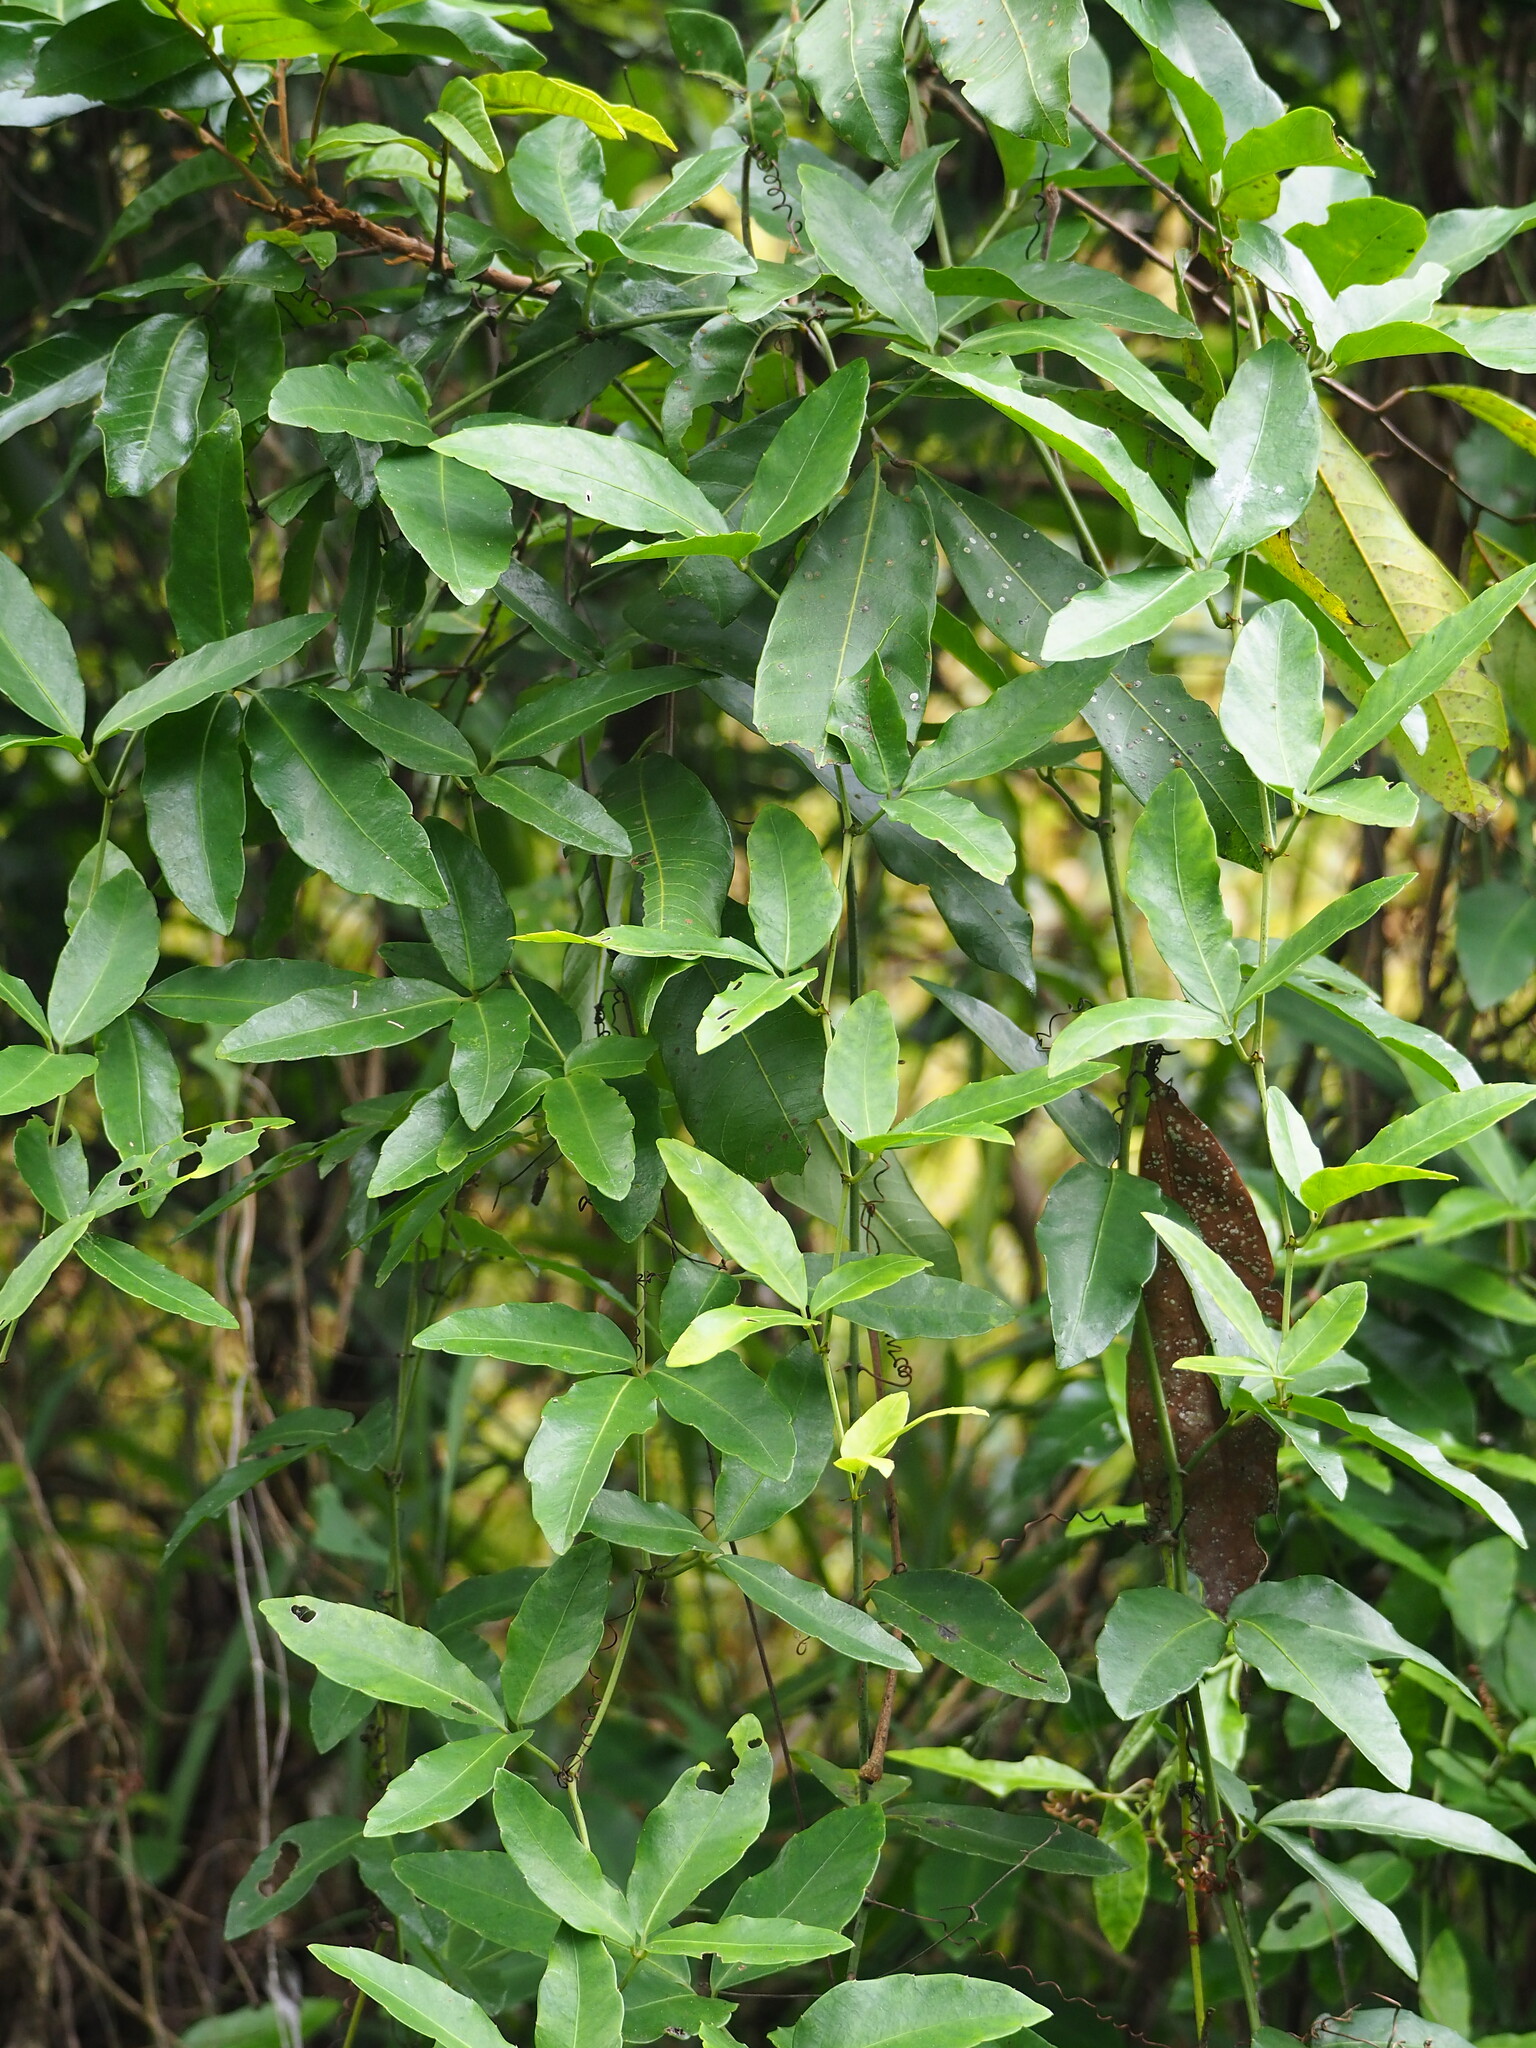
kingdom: Plantae
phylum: Tracheophyta
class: Magnoliopsida
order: Vitales
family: Vitaceae
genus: Tetrastigma
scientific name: Tetrastigma formosanum
